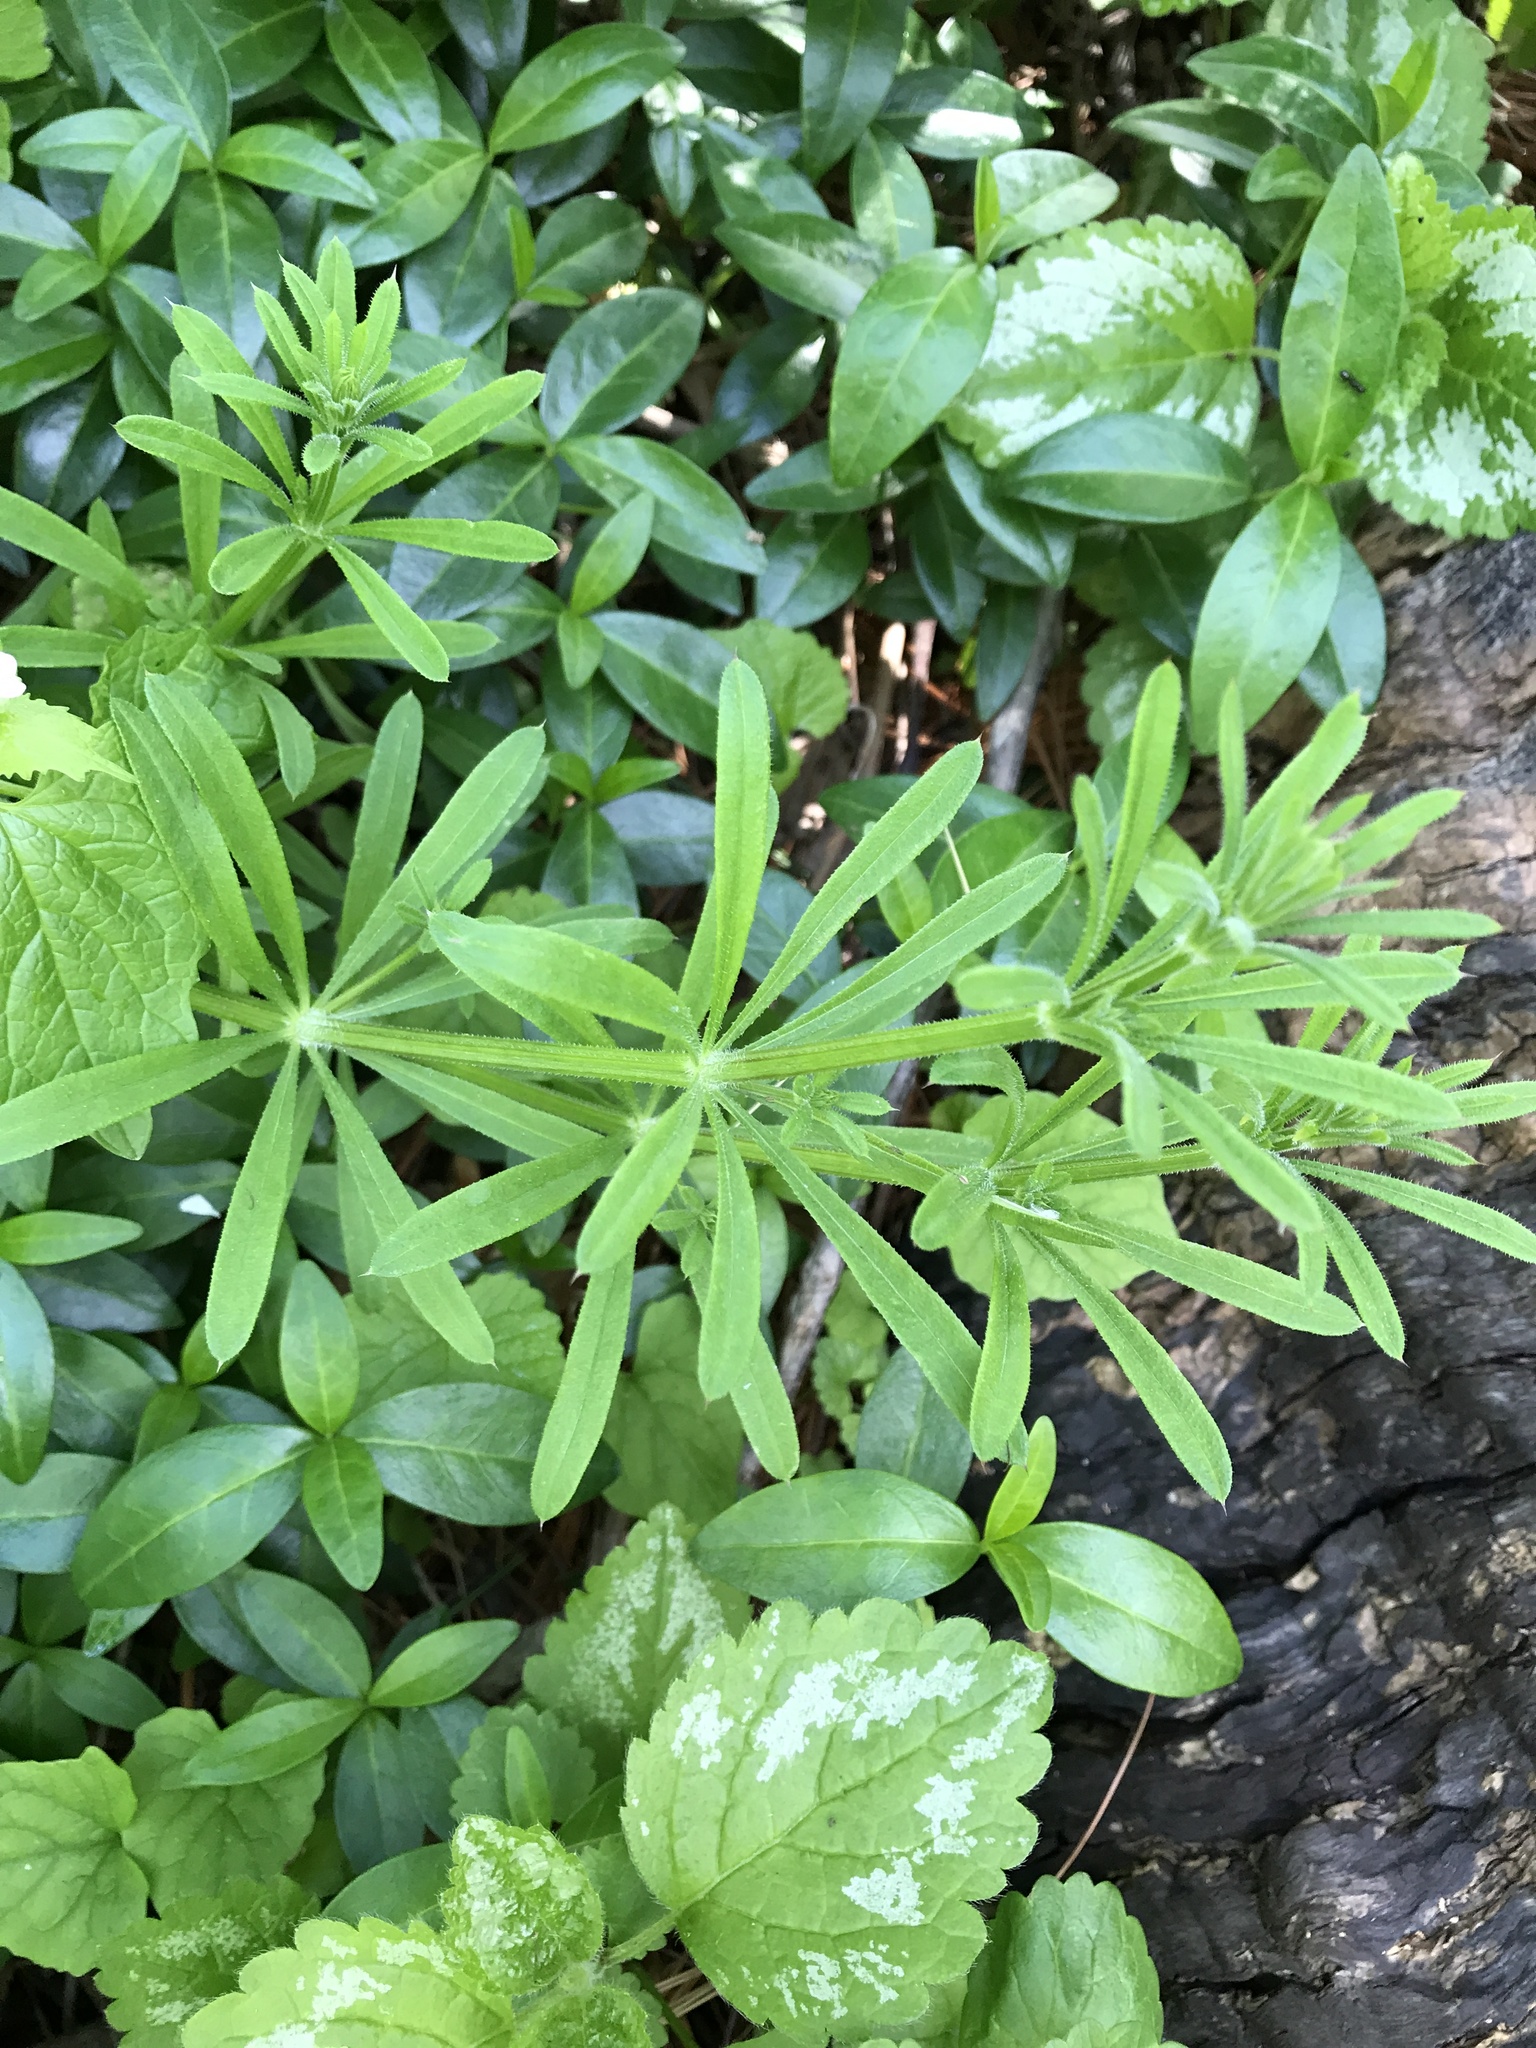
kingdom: Plantae
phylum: Tracheophyta
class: Magnoliopsida
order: Gentianales
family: Rubiaceae
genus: Galium
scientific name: Galium aparine
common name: Cleavers
